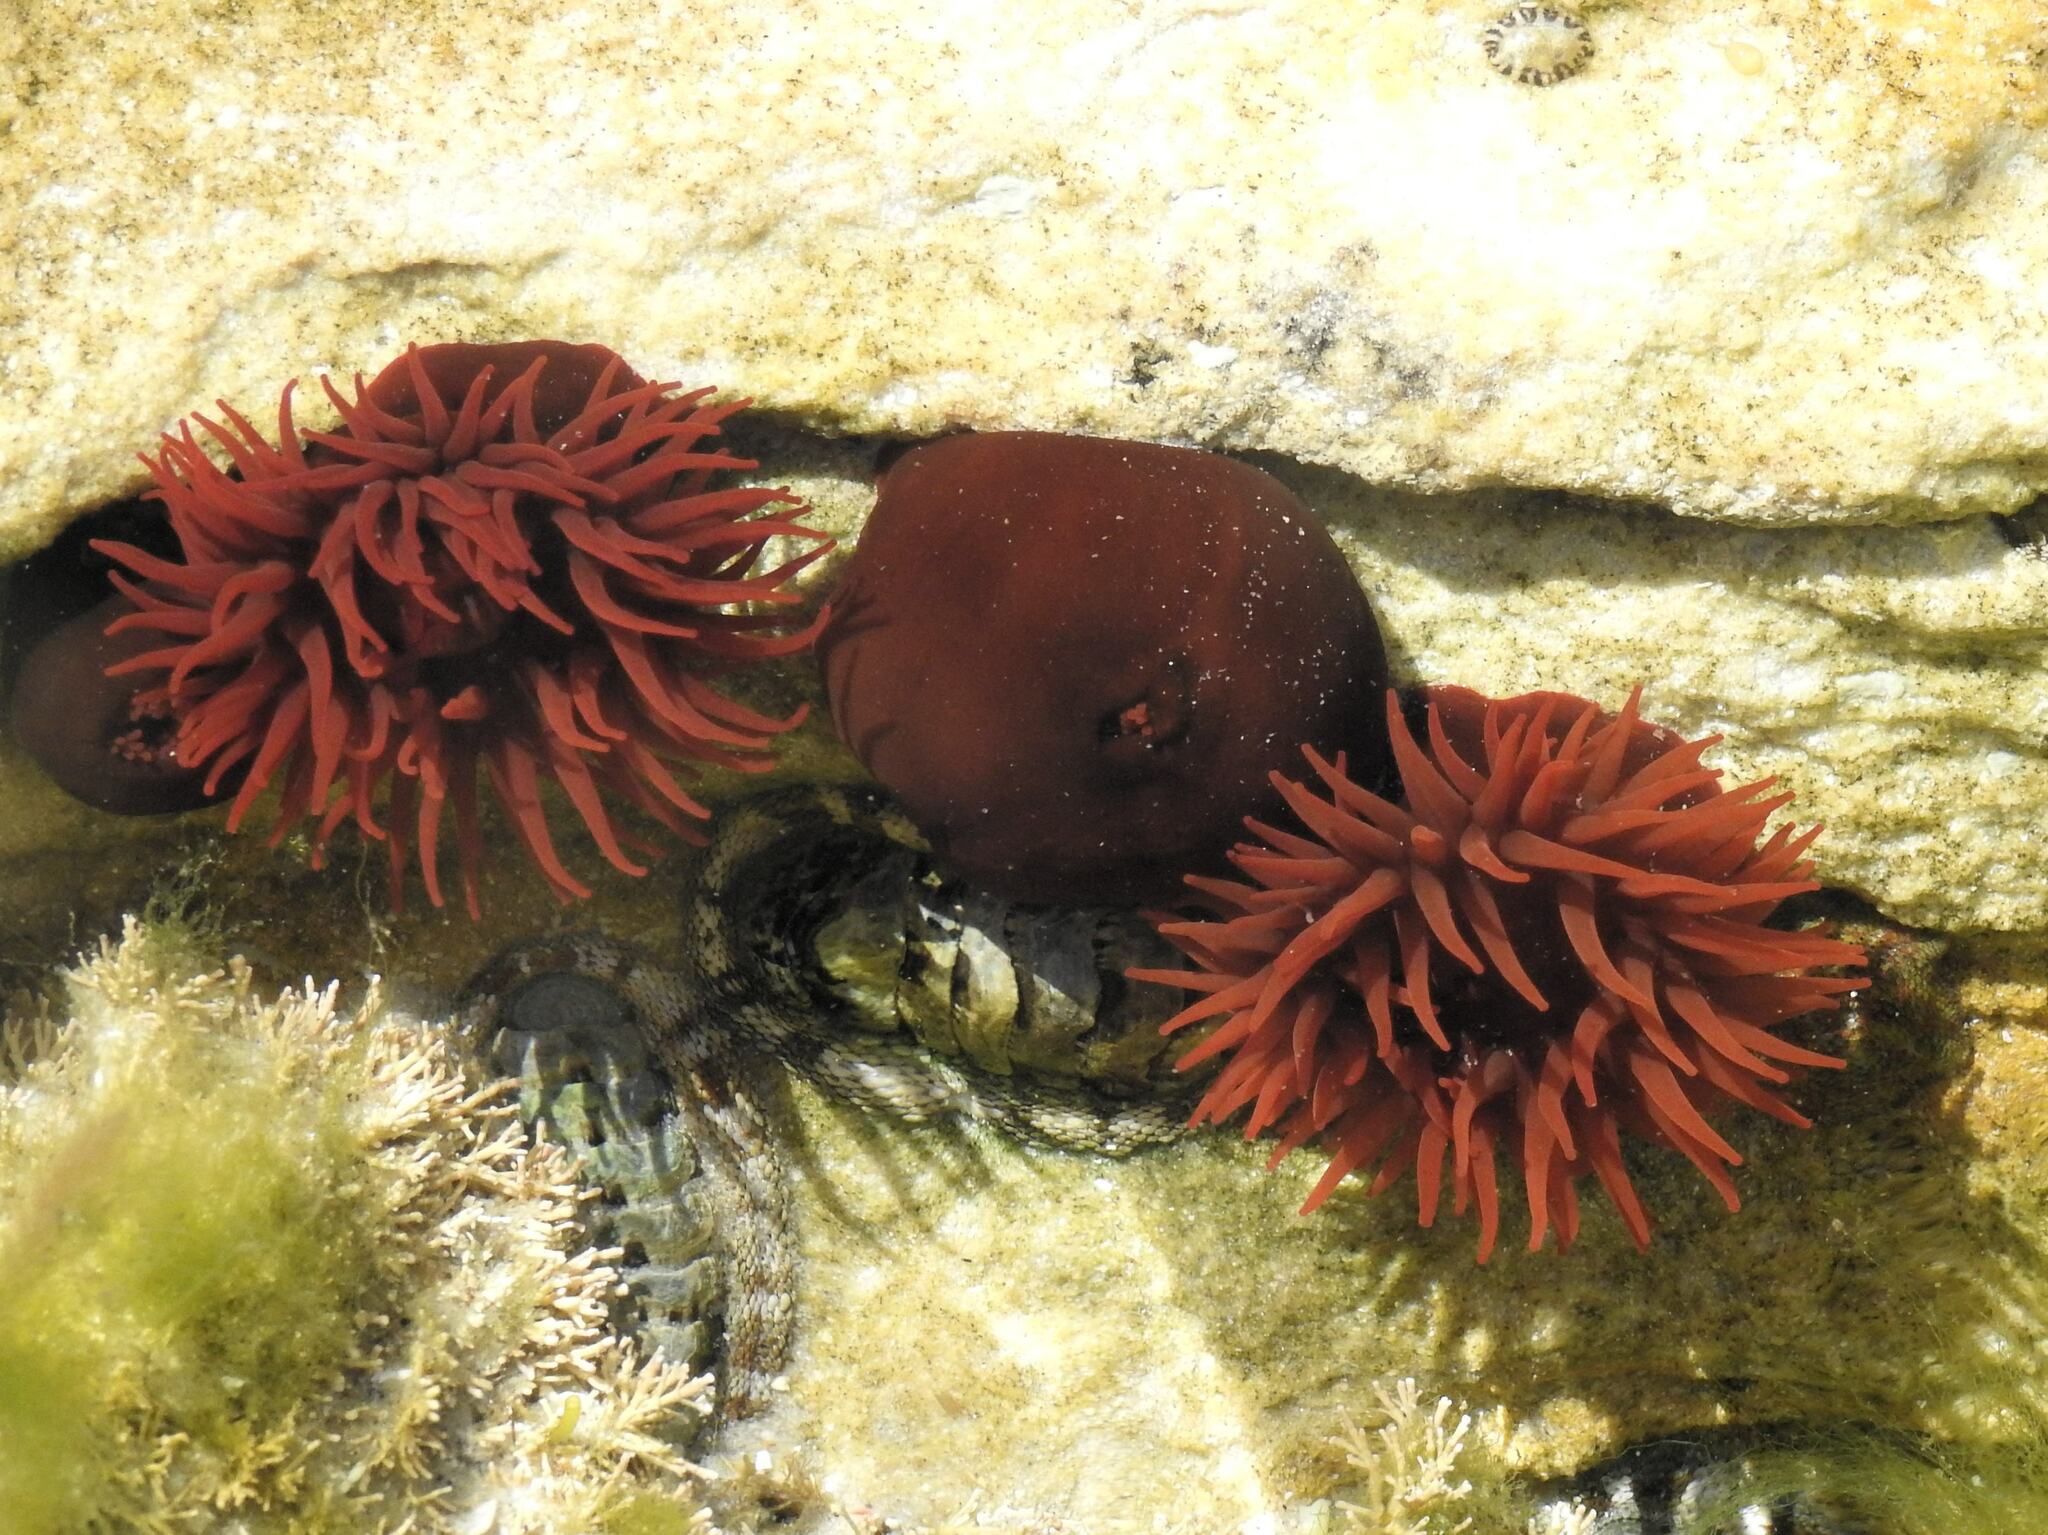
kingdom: Animalia
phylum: Cnidaria
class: Anthozoa
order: Actiniaria
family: Actiniidae
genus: Actinia
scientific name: Actinia tenebrosa
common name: Waratah anemone
